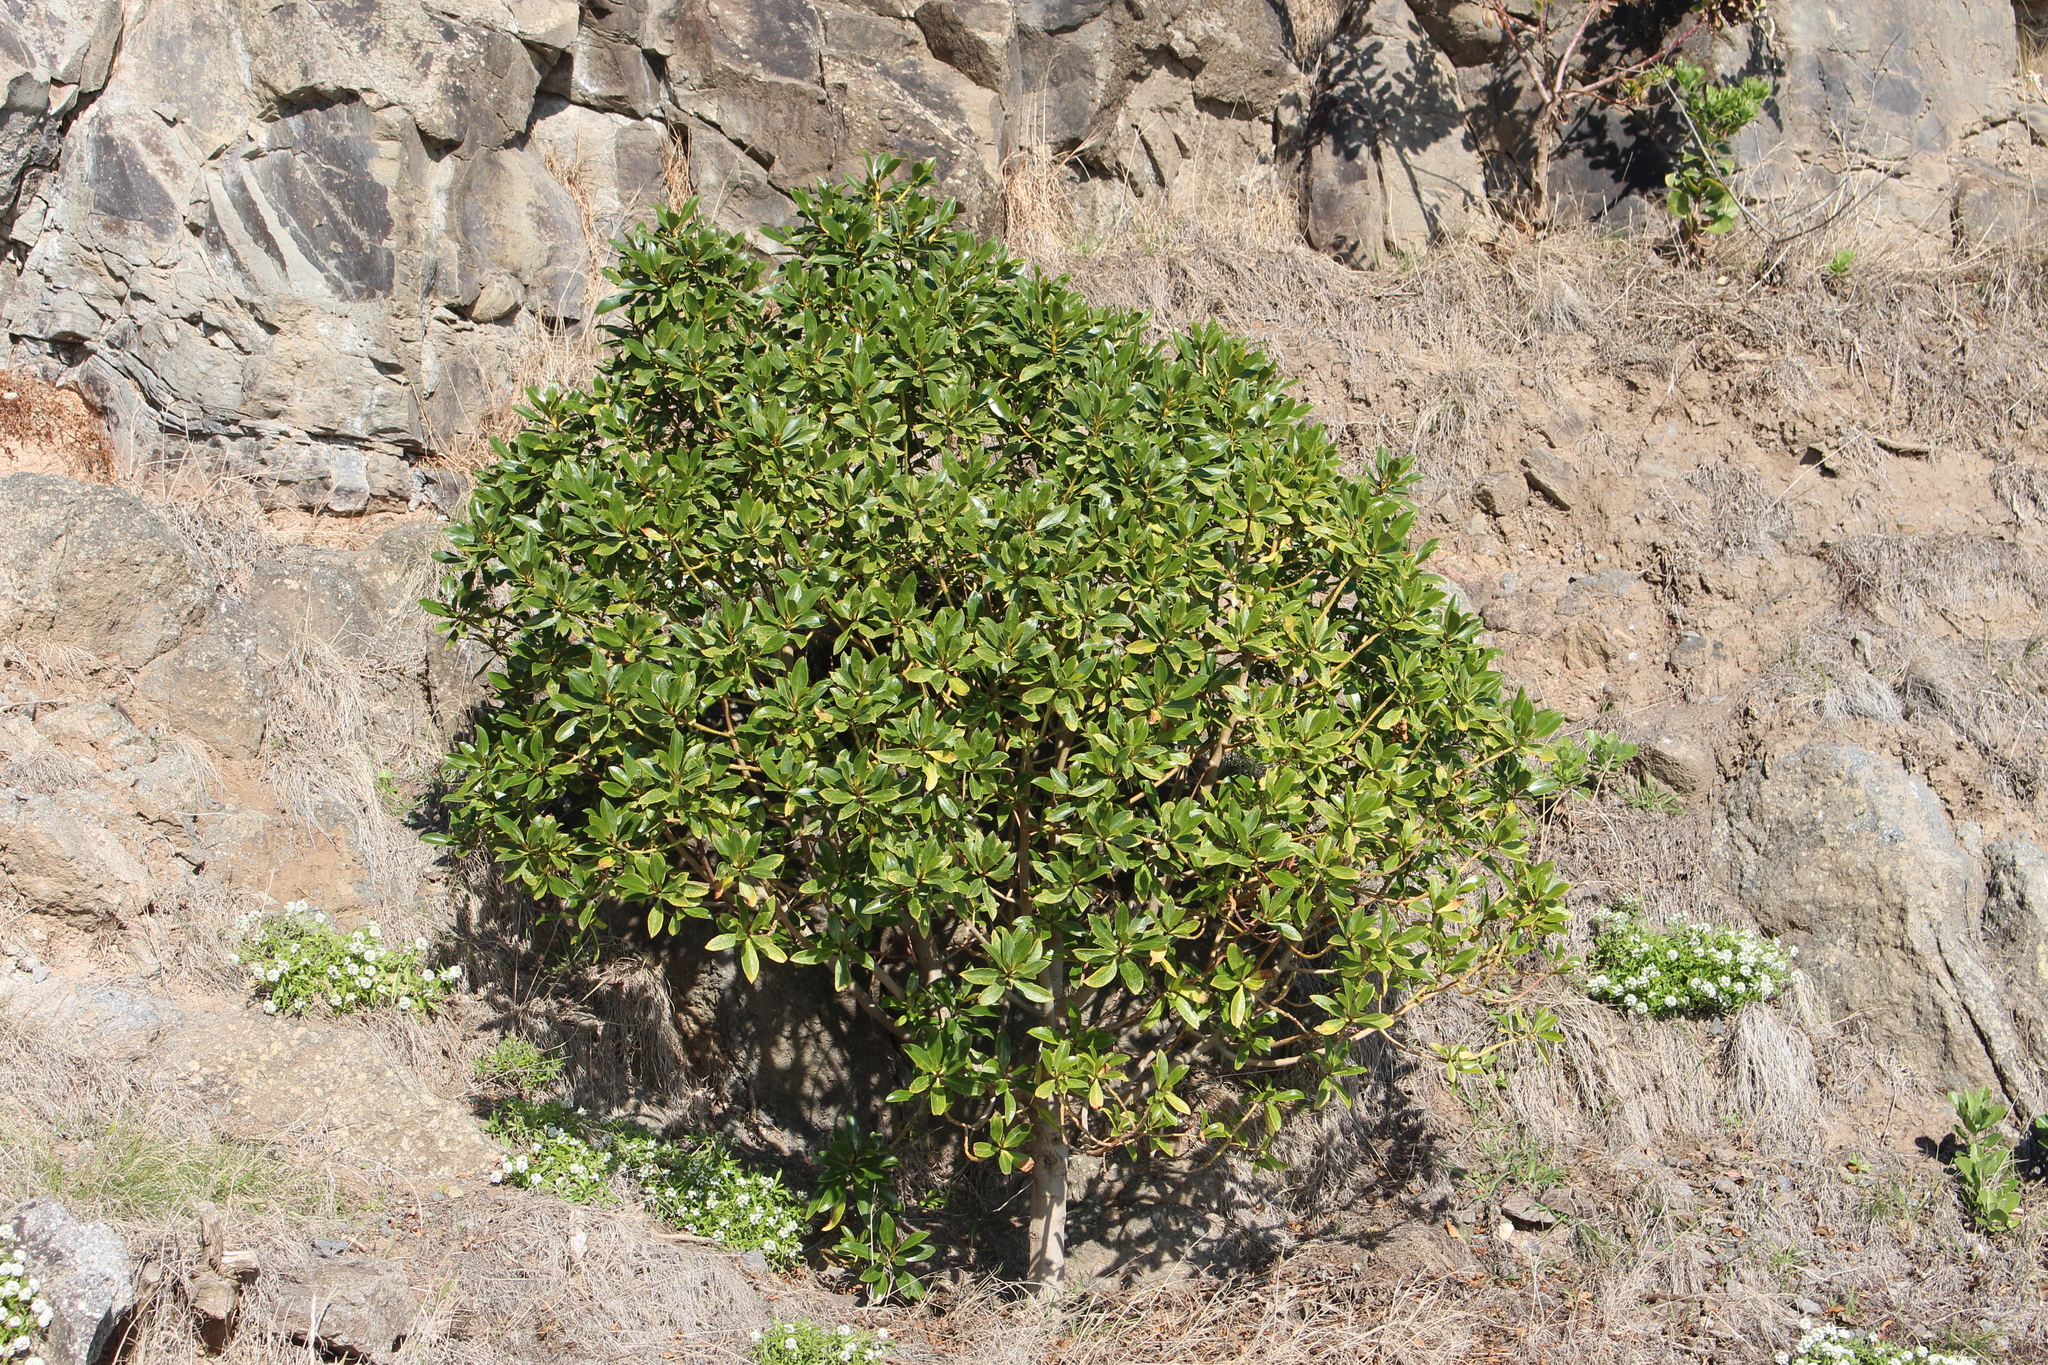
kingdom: Plantae
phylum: Tracheophyta
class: Magnoliopsida
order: Lamiales
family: Scrophulariaceae
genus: Myoporum
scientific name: Myoporum laetum
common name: Ngaio tree
